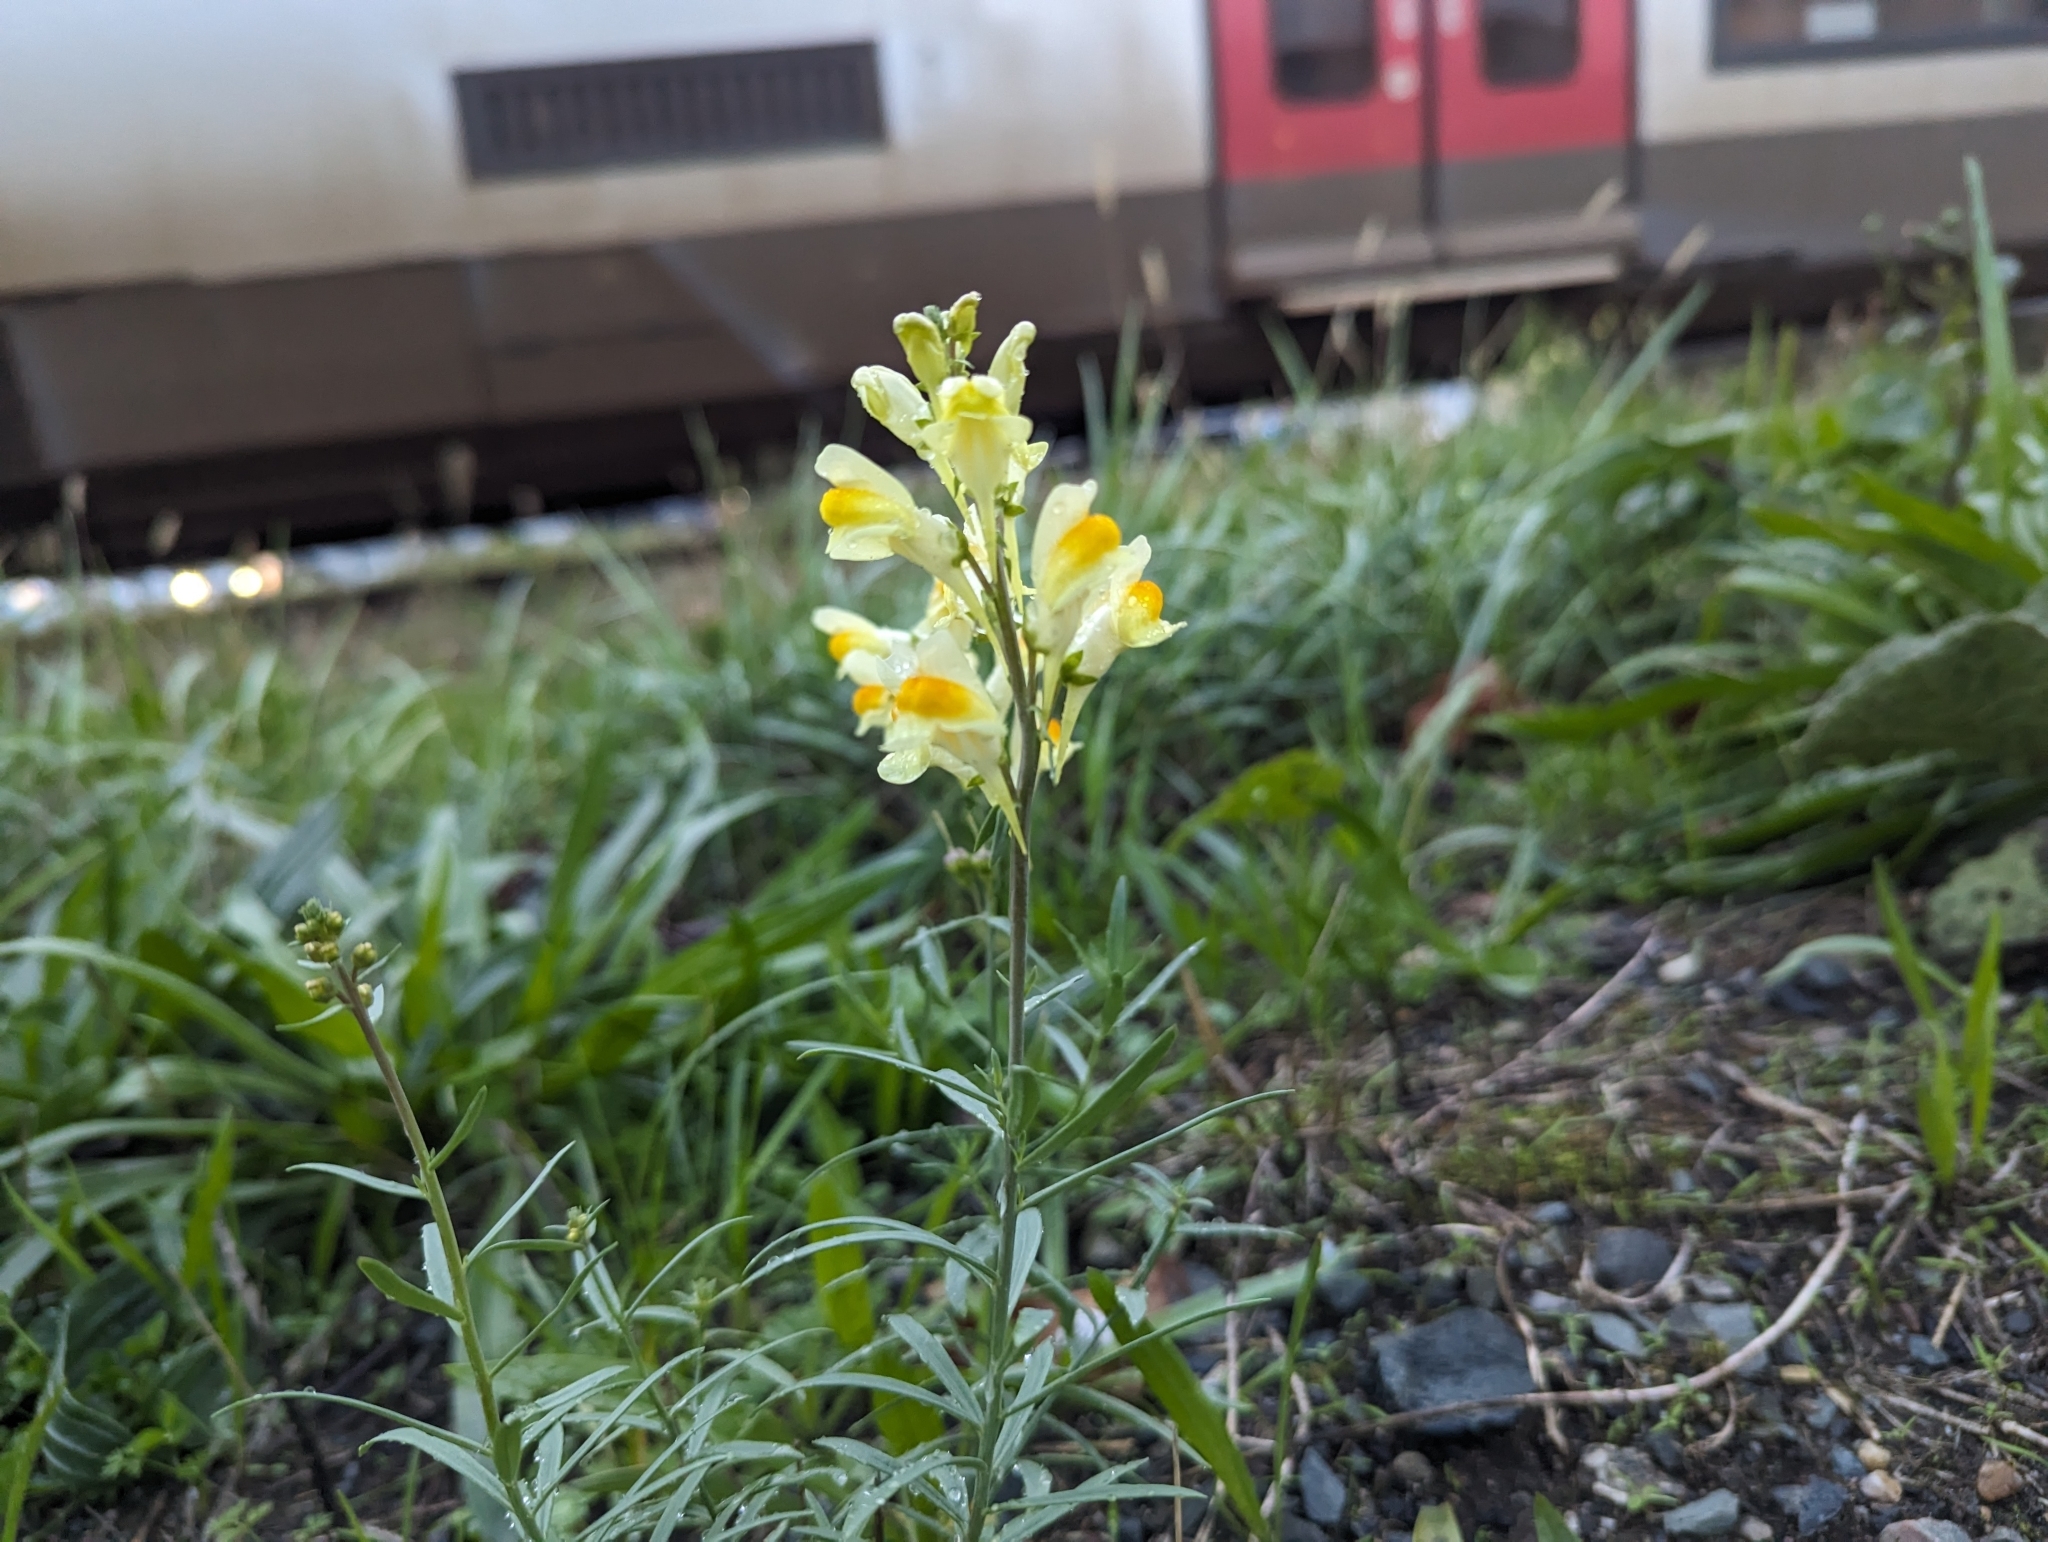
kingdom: Plantae
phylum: Tracheophyta
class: Magnoliopsida
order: Lamiales
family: Plantaginaceae
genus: Linaria
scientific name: Linaria vulgaris
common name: Butter and eggs
